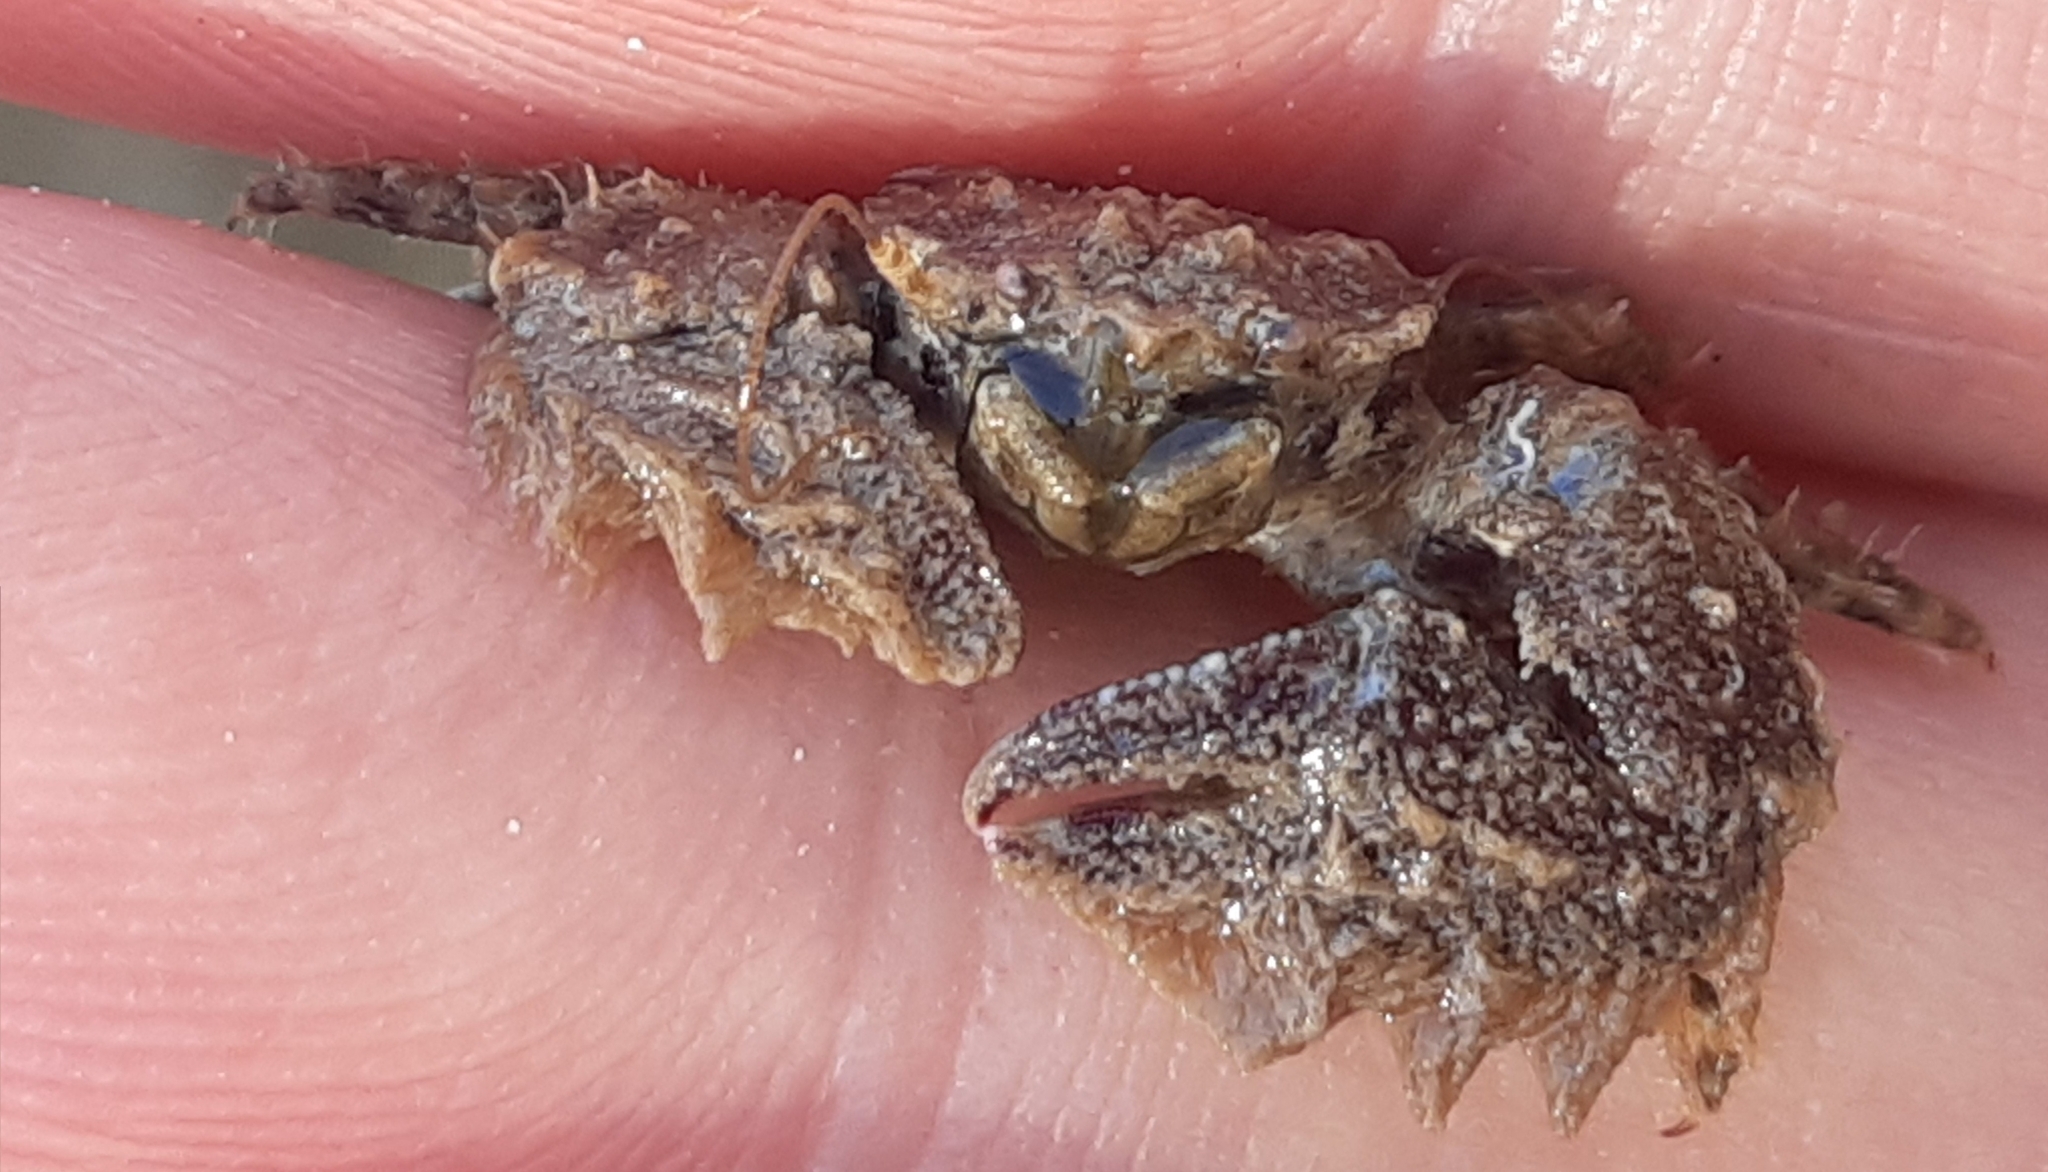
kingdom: Animalia
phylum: Arthropoda
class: Malacostraca
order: Decapoda
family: Porcellanidae
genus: Porcellana
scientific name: Porcellana platycheles
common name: Porcelain crab
